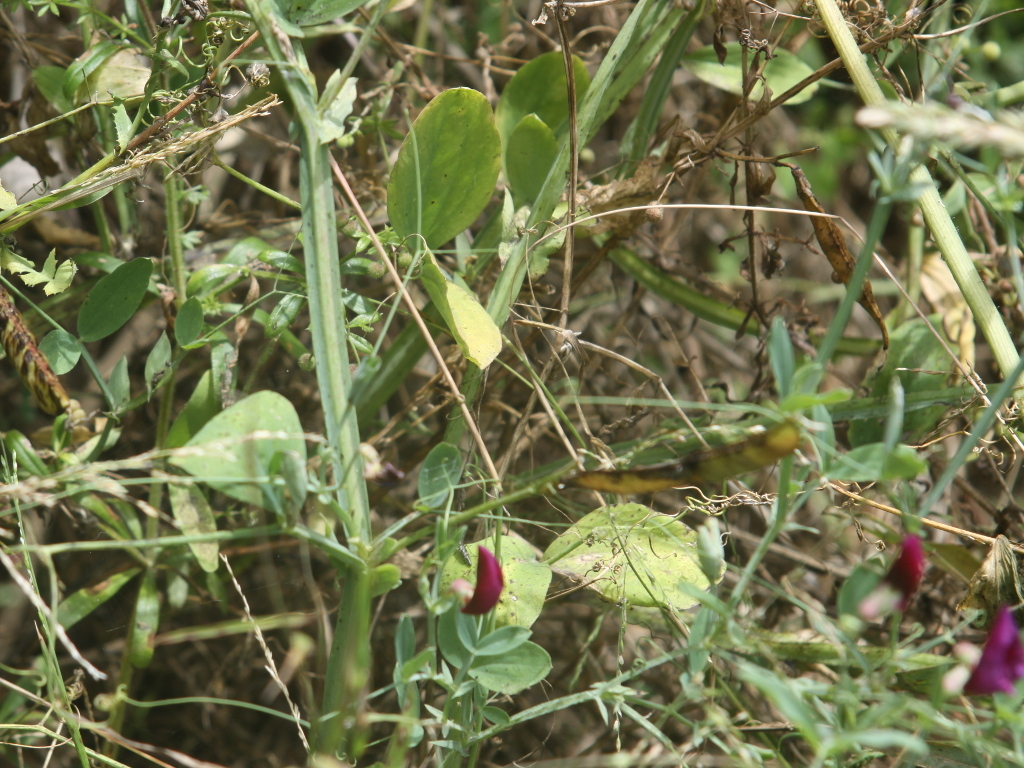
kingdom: Plantae
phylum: Tracheophyta
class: Magnoliopsida
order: Fabales
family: Fabaceae
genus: Lathyrus
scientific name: Lathyrus tingitanus
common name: Tangier pea
